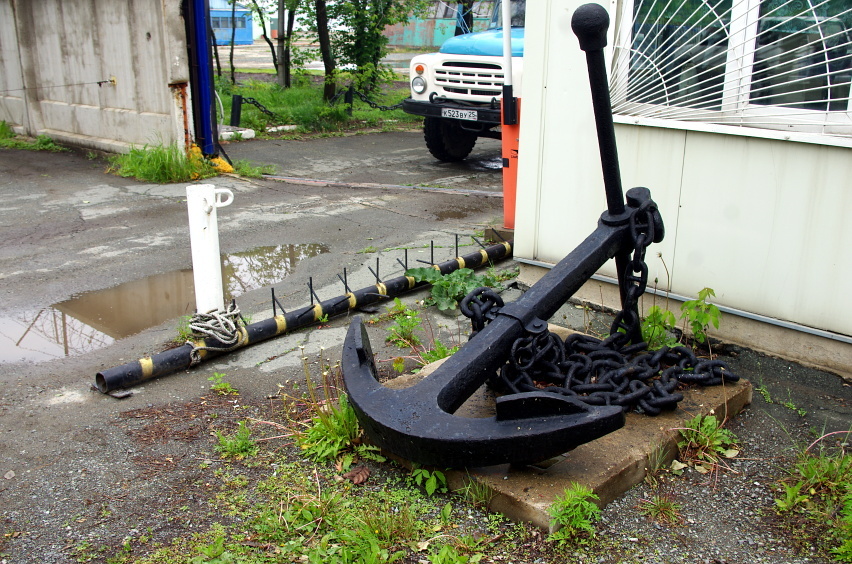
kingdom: Plantae
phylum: Tracheophyta
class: Magnoliopsida
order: Sapindales
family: Sapindaceae
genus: Acer
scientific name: Acer negundo
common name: Ashleaf maple
